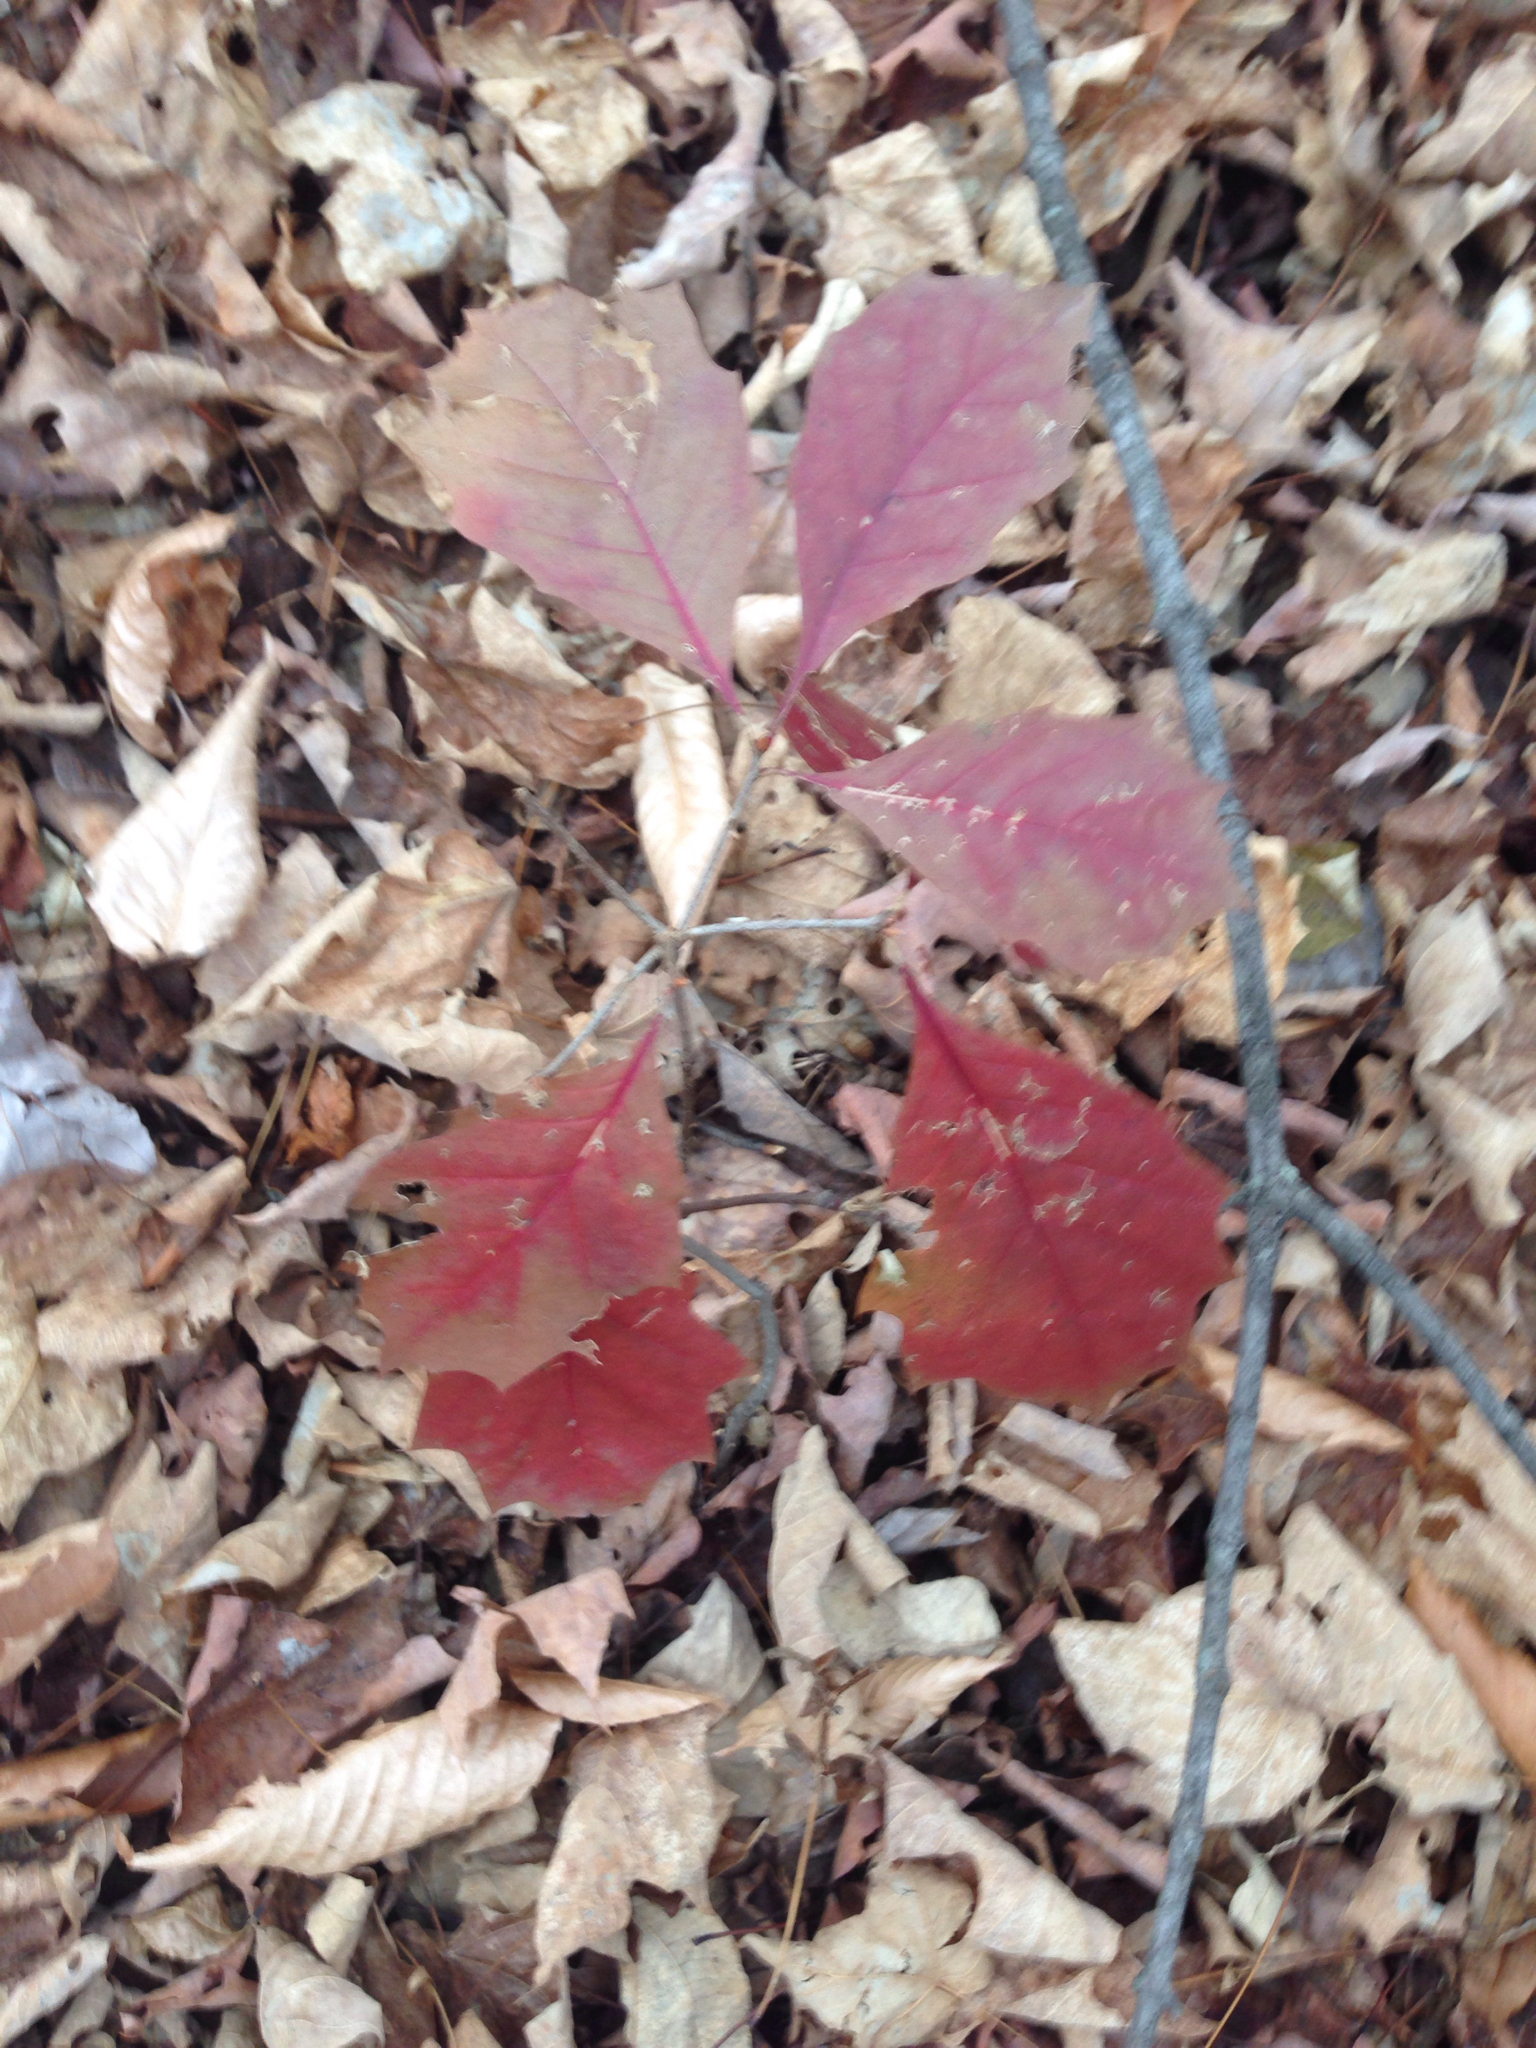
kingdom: Plantae
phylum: Tracheophyta
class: Magnoliopsida
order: Fagales
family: Fagaceae
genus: Quercus
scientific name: Quercus rubra
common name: Red oak
